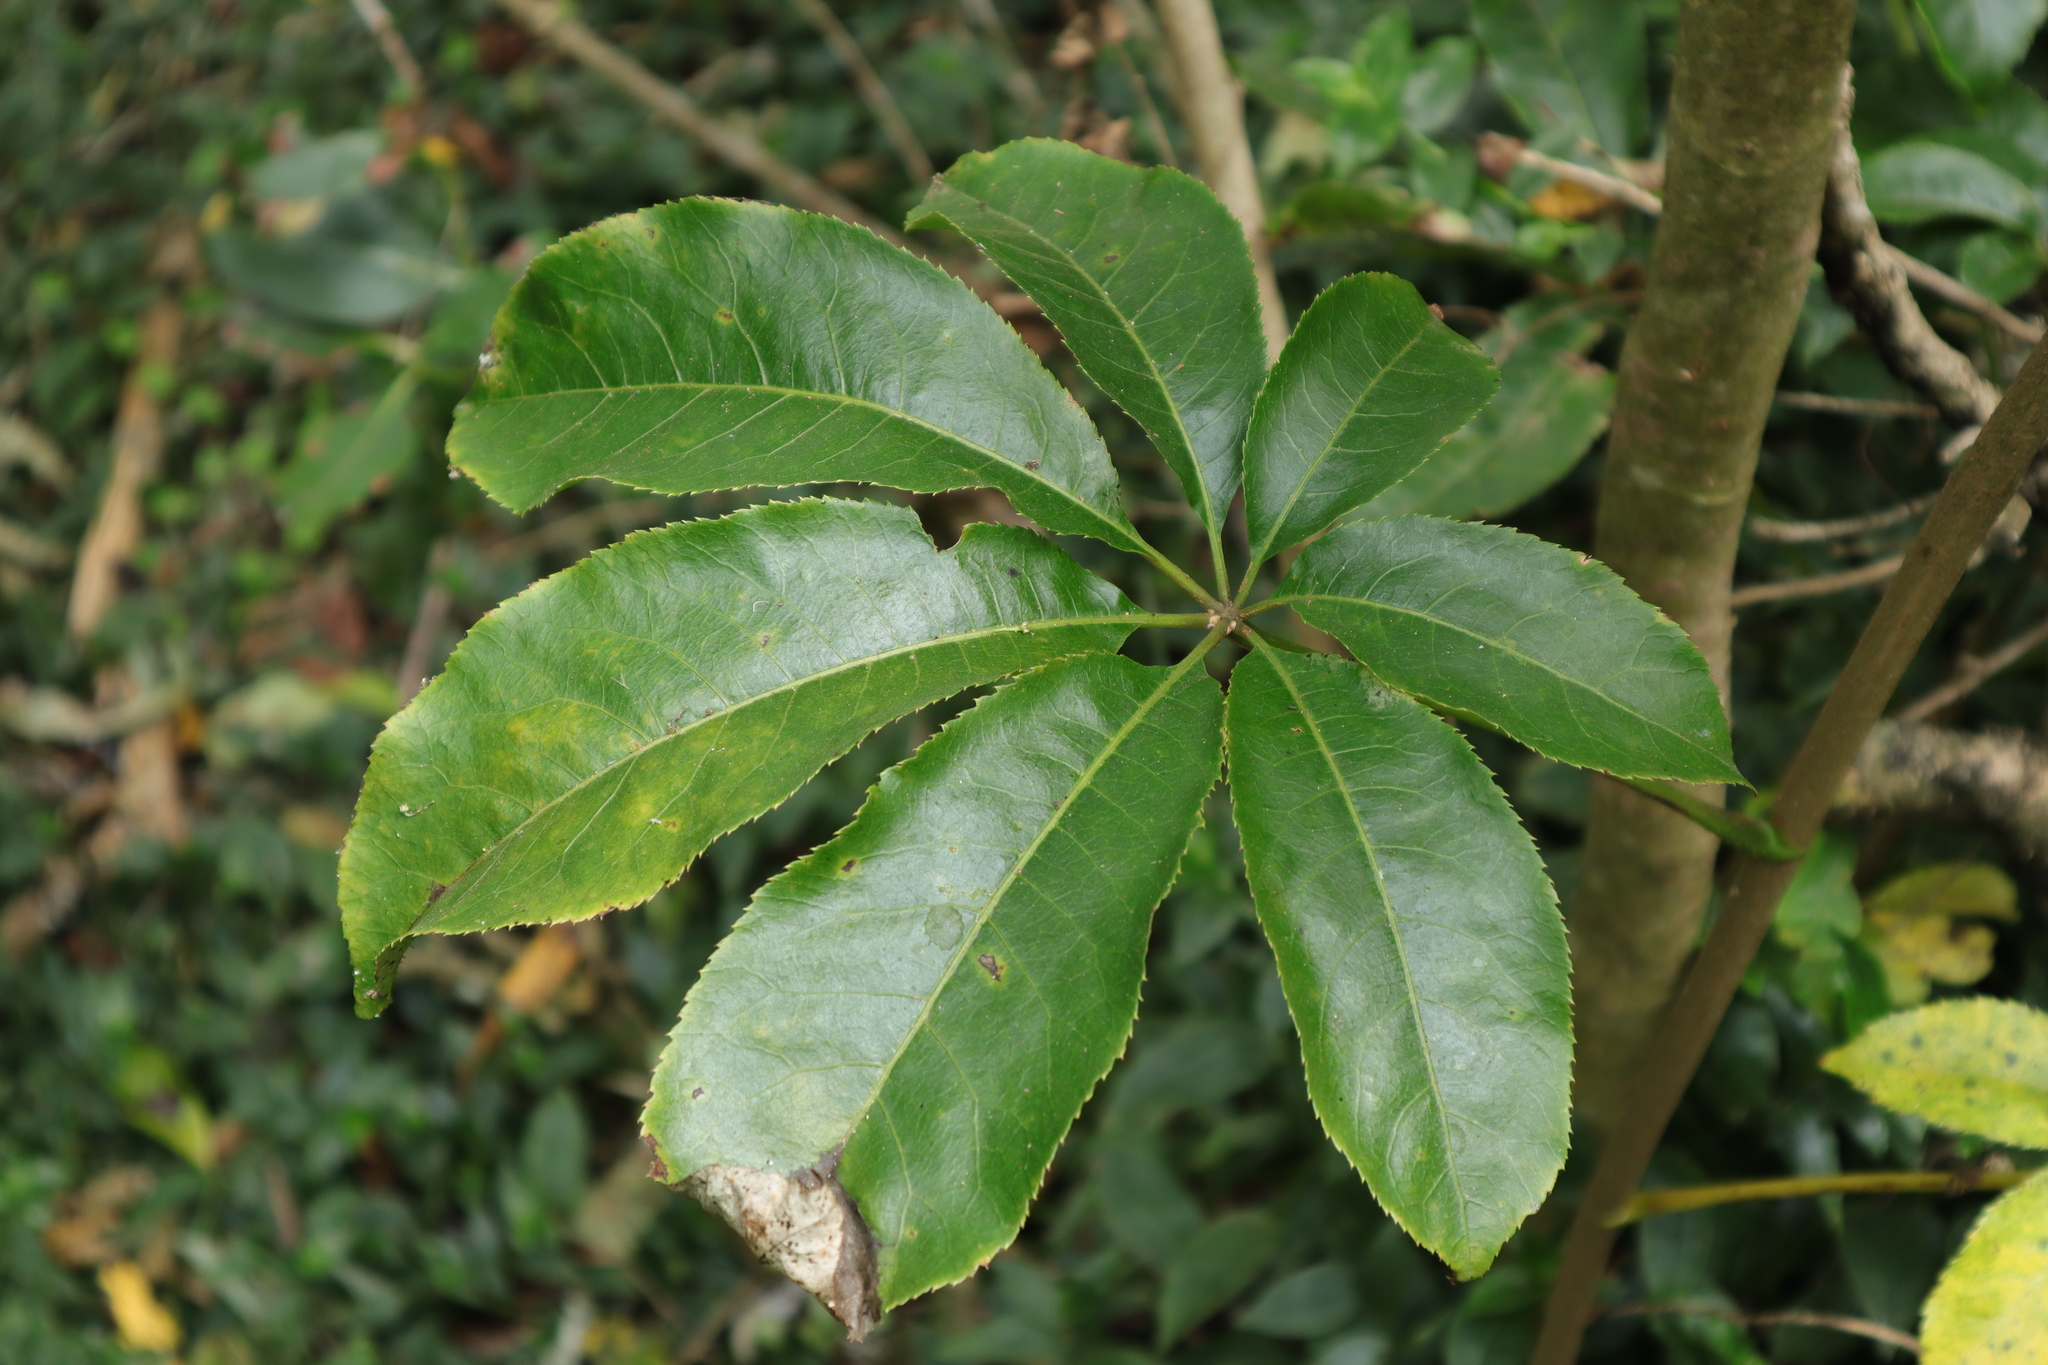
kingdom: Plantae
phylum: Tracheophyta
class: Magnoliopsida
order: Apiales
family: Araliaceae
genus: Schefflera
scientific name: Schefflera digitata
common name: Pate
